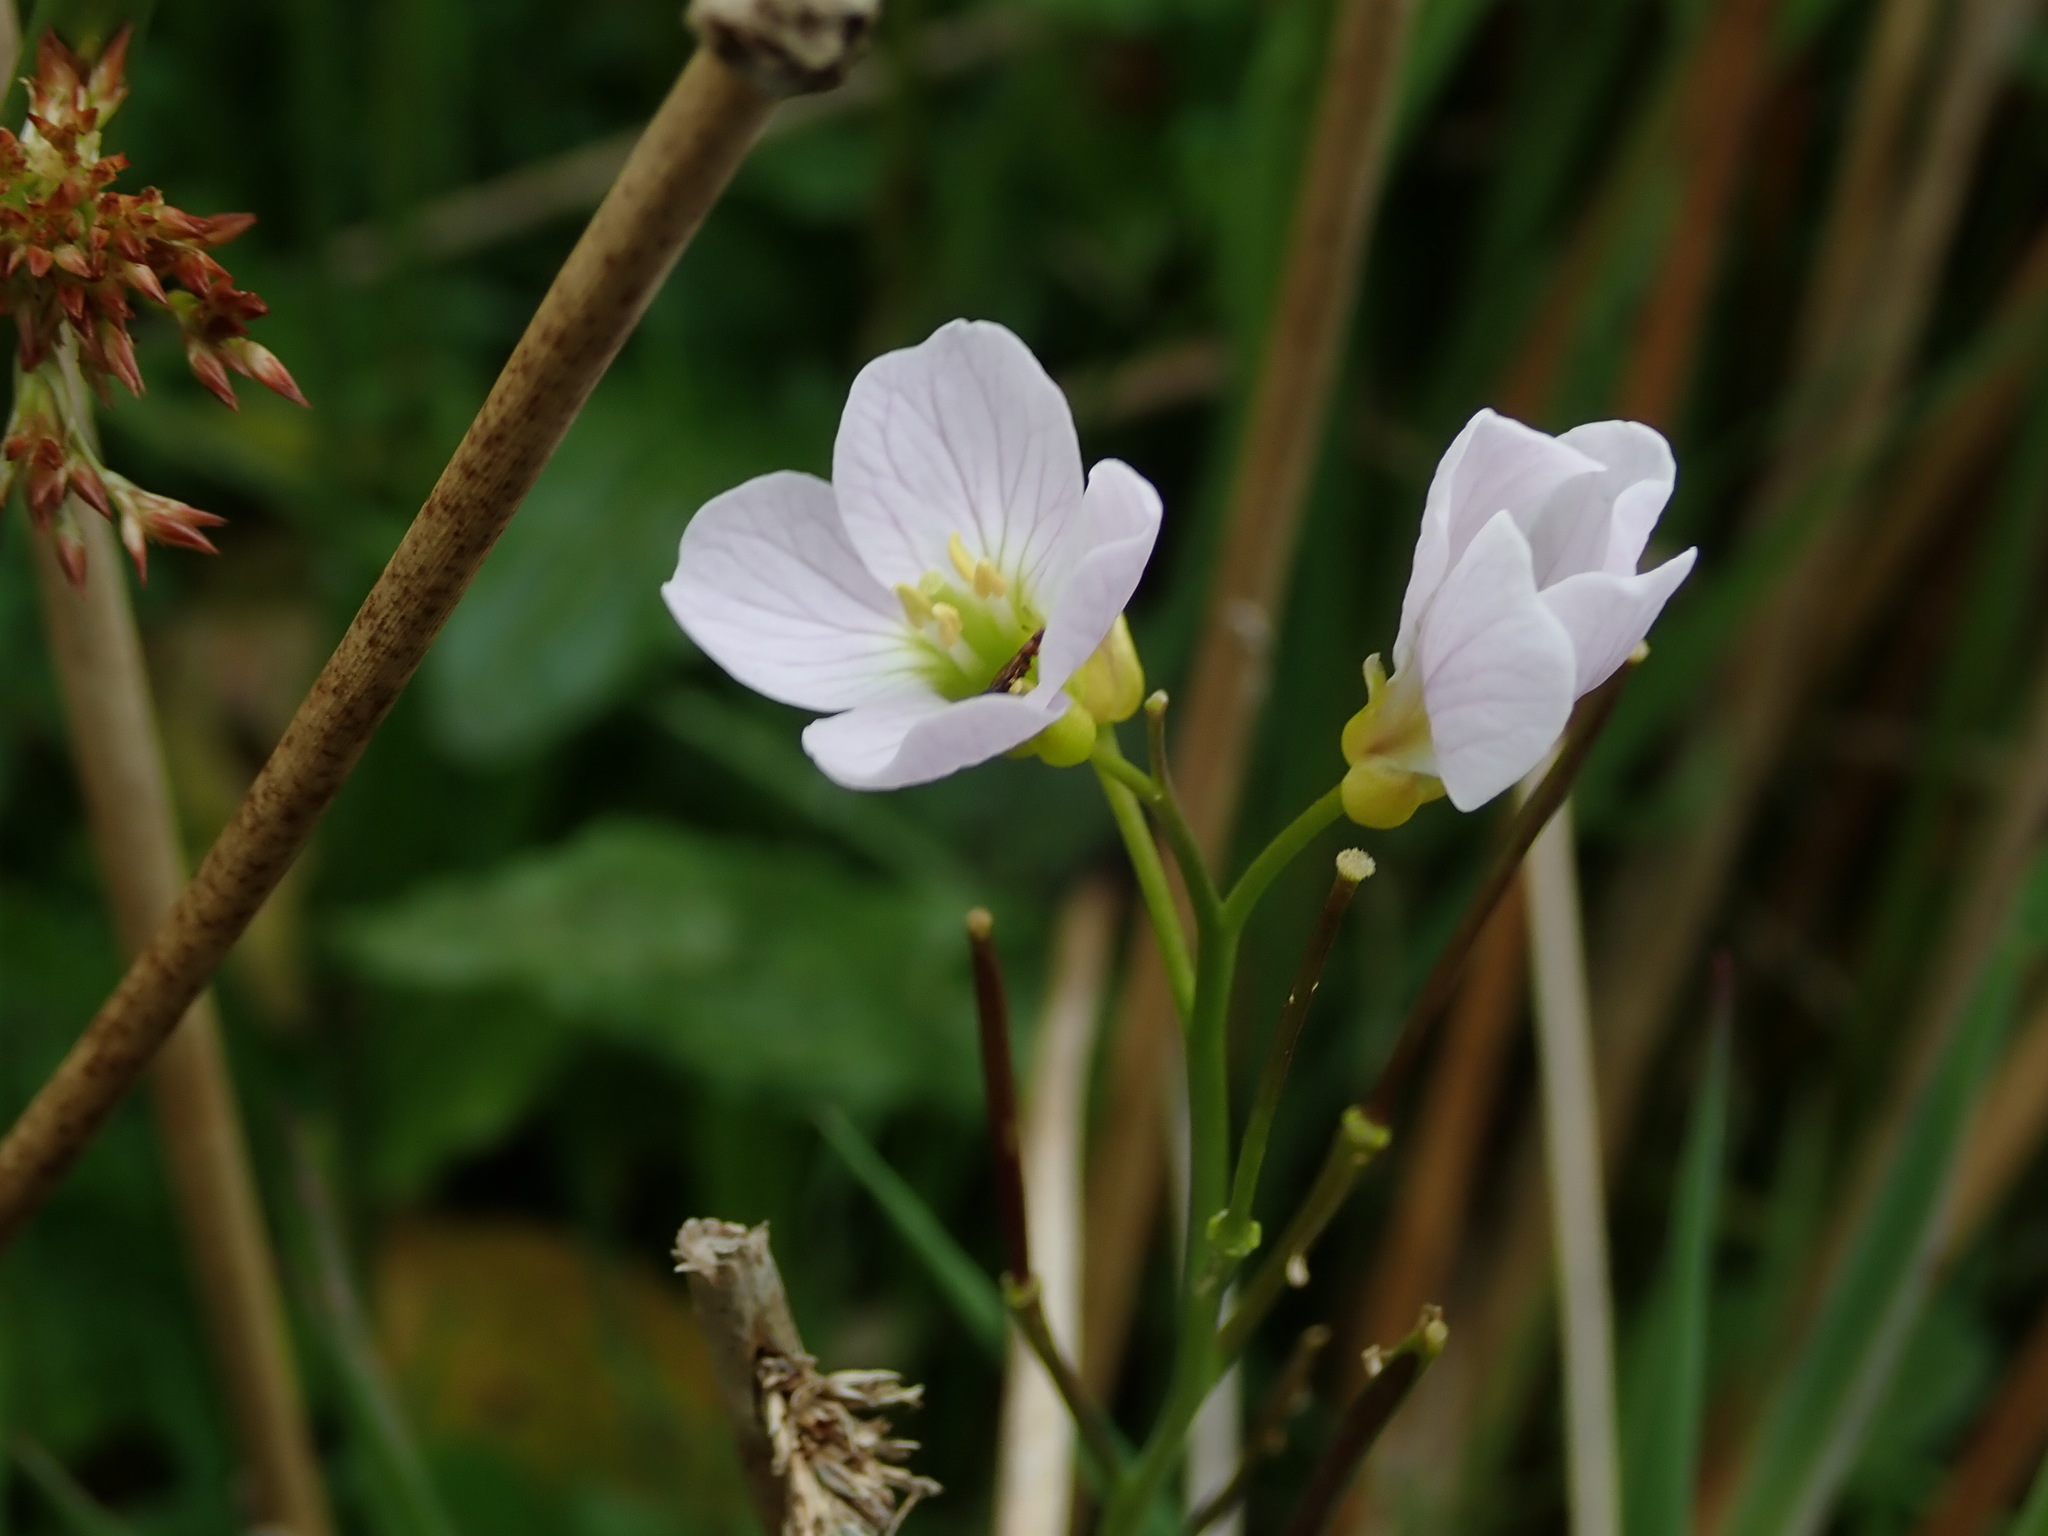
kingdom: Plantae
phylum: Tracheophyta
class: Magnoliopsida
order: Brassicales
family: Brassicaceae
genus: Cardamine
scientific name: Cardamine pratensis
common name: Cuckoo flower
